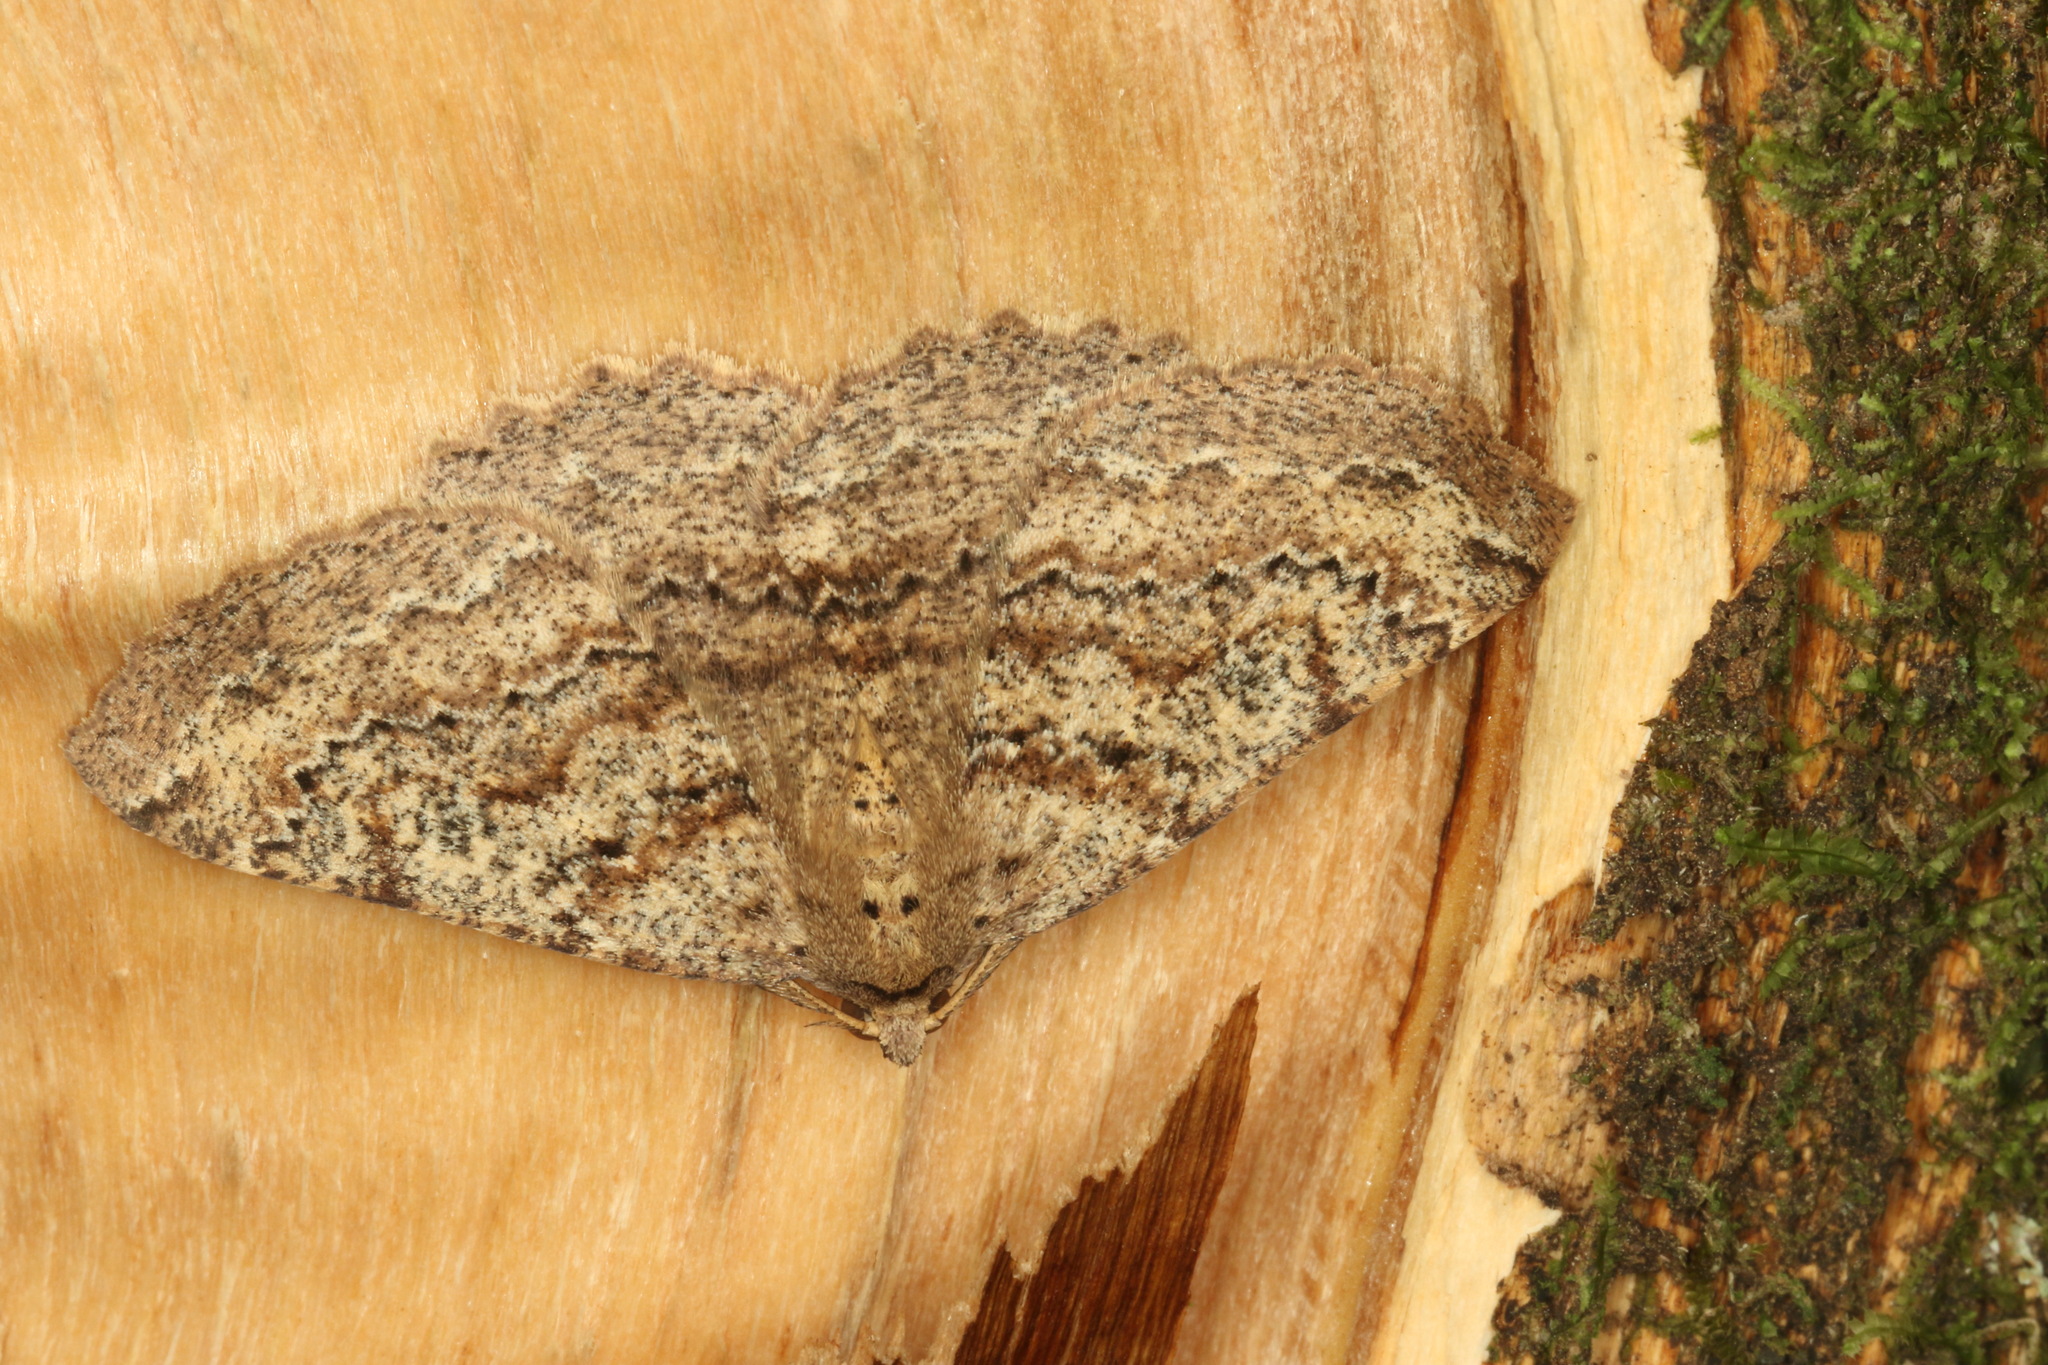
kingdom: Animalia
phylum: Arthropoda
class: Insecta
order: Lepidoptera
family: Geometridae
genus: Cleora
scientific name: Cleora scriptaria
